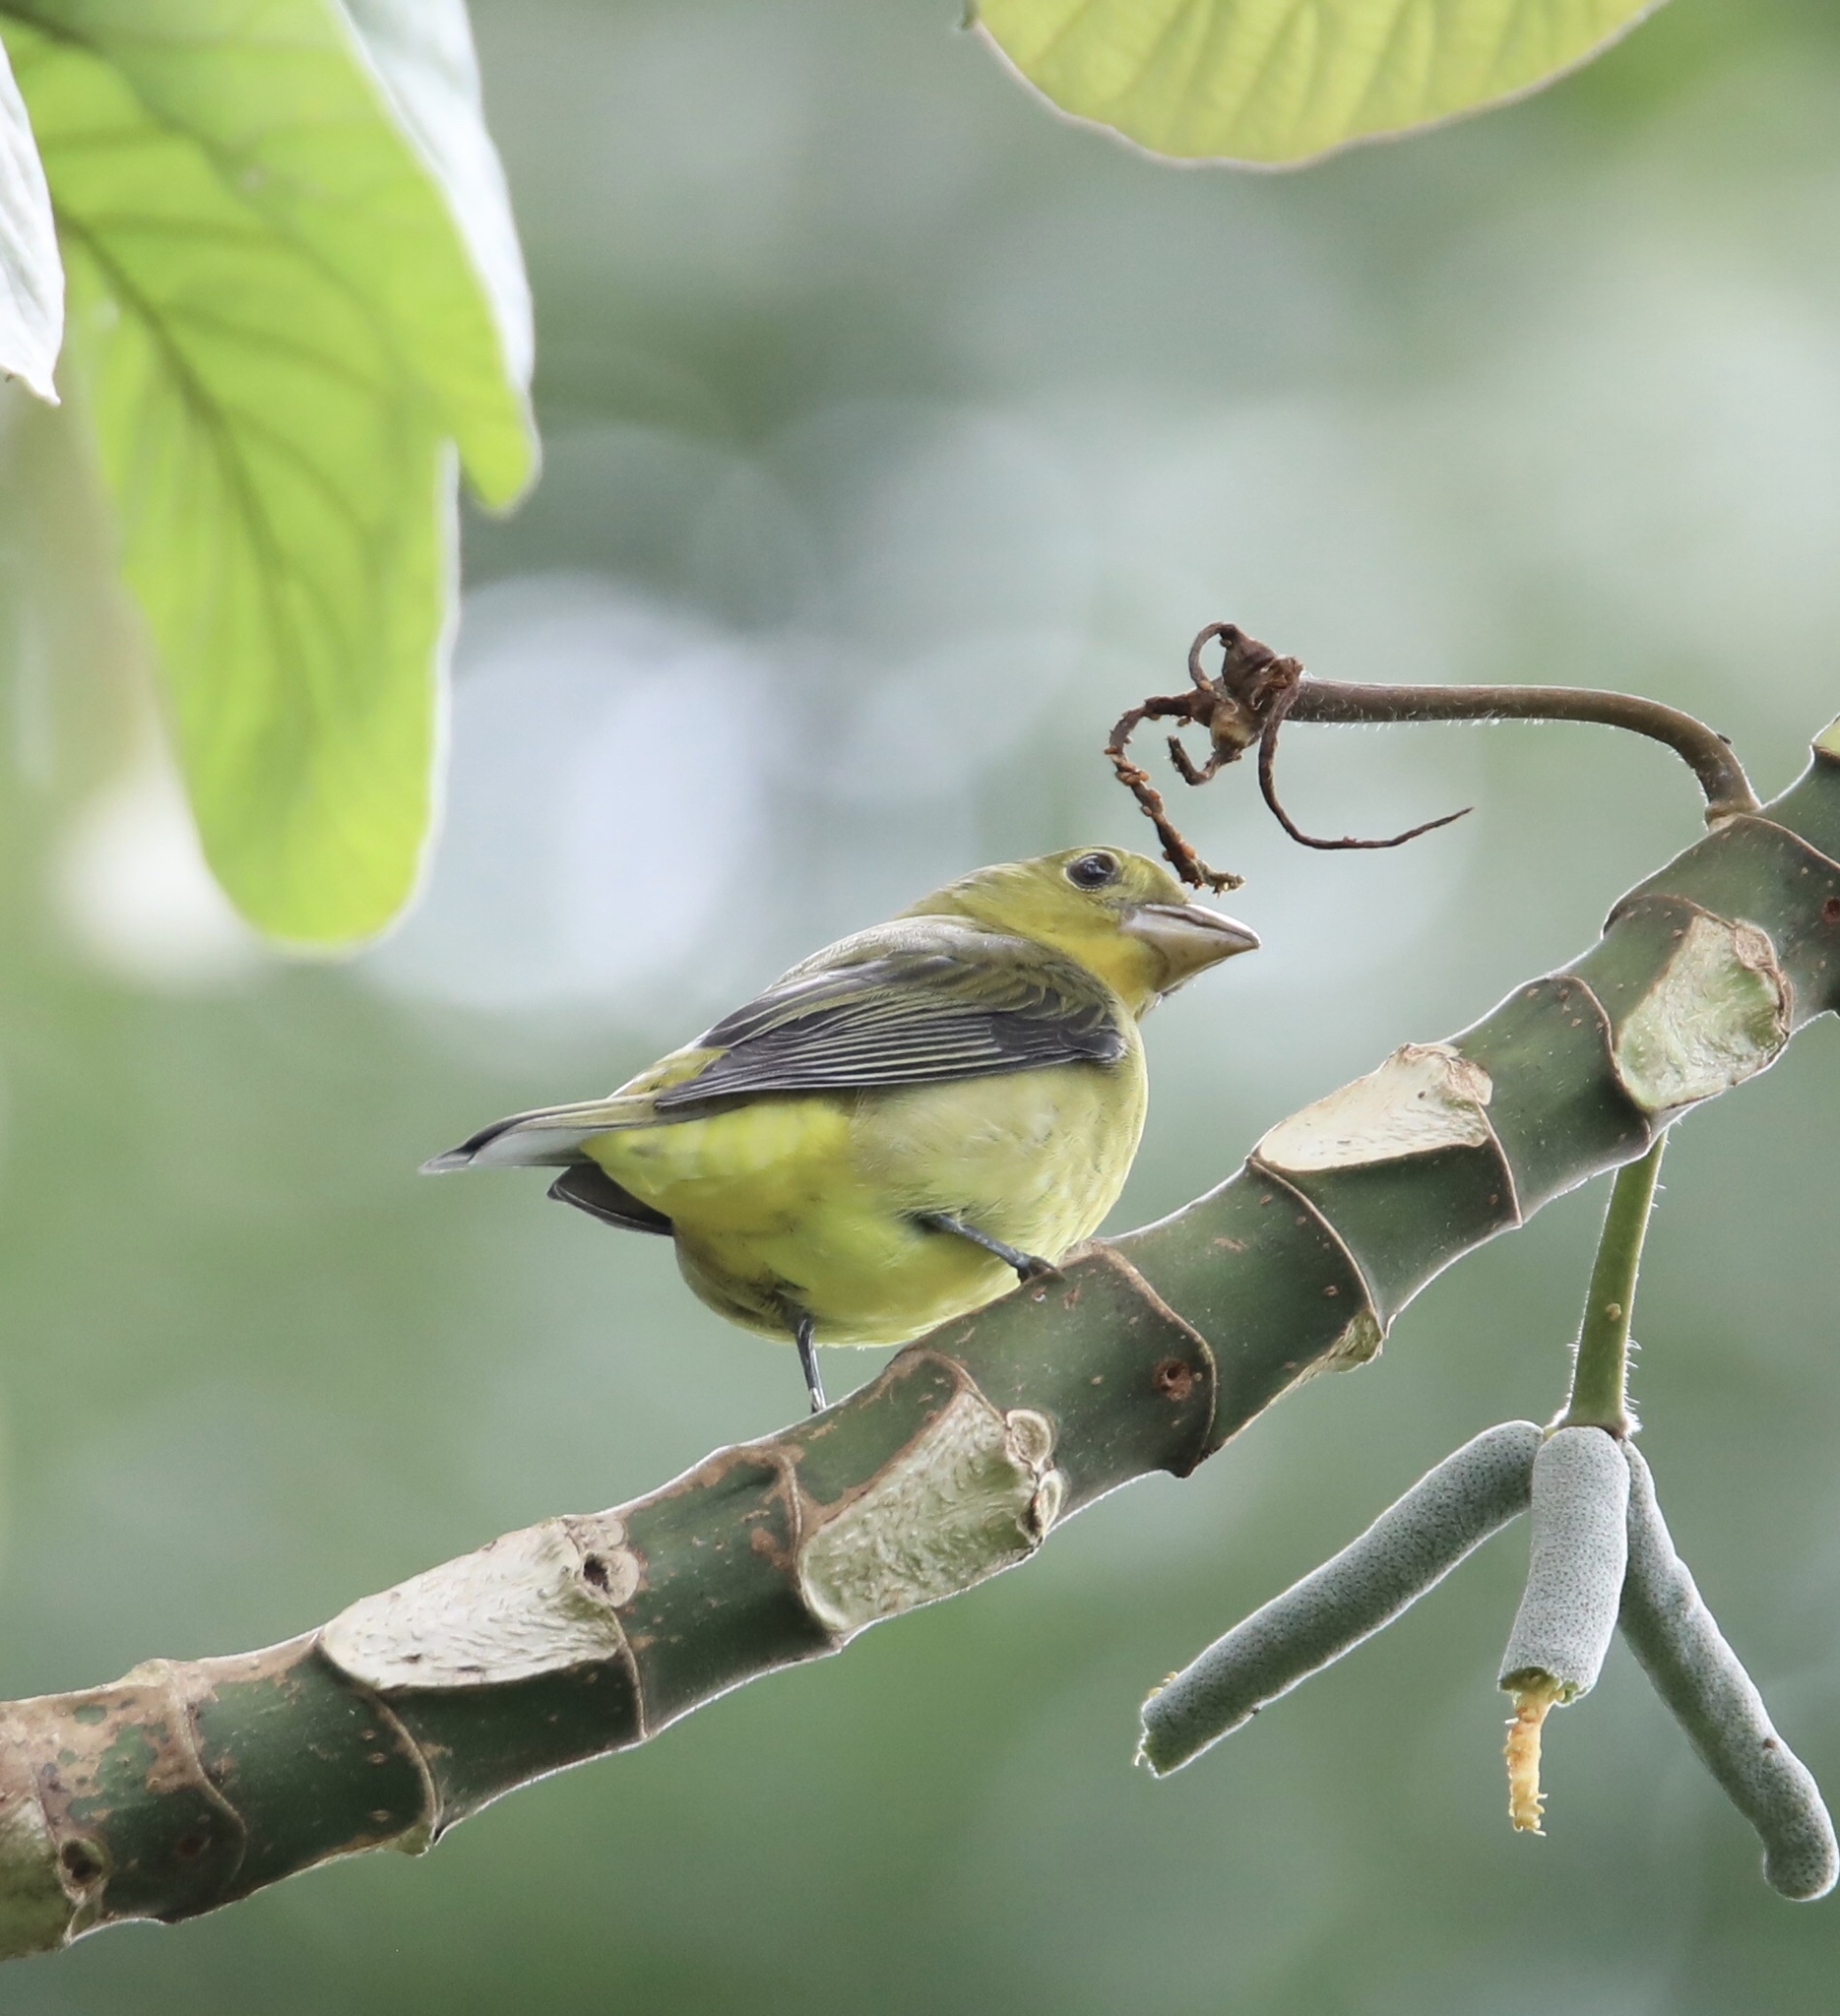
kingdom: Animalia
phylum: Chordata
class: Aves
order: Passeriformes
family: Cardinalidae
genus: Piranga
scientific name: Piranga olivacea
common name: Scarlet tanager
